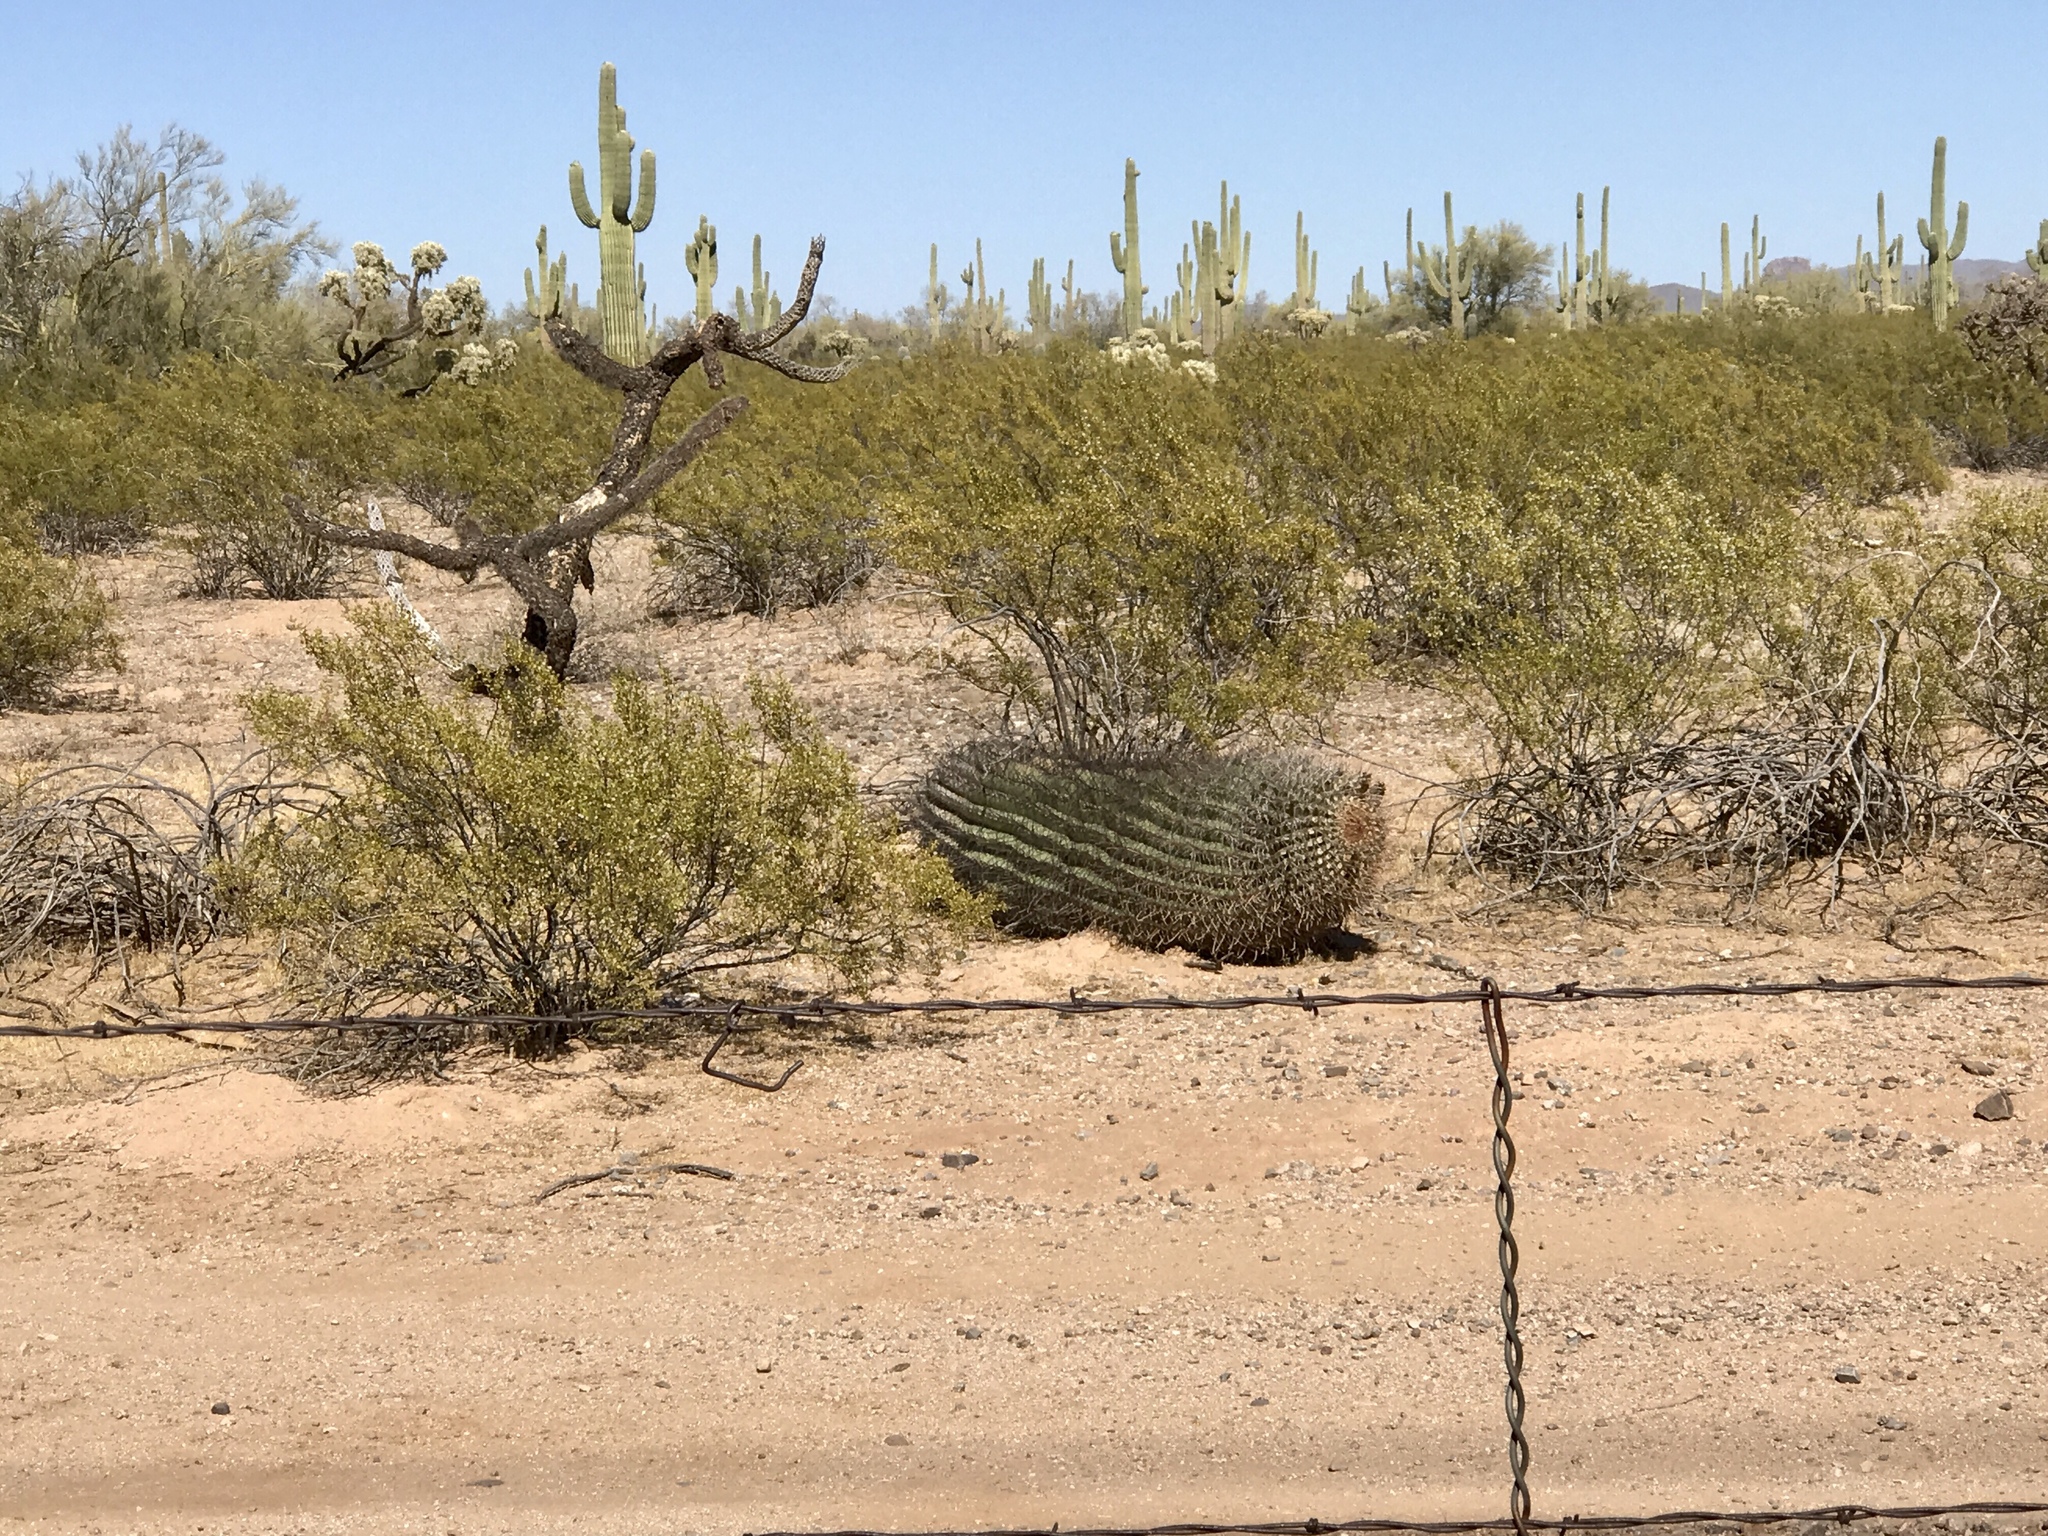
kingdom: Plantae
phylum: Tracheophyta
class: Magnoliopsida
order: Caryophyllales
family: Cactaceae
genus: Ferocactus
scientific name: Ferocactus wislizeni
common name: Candy barrel cactus
